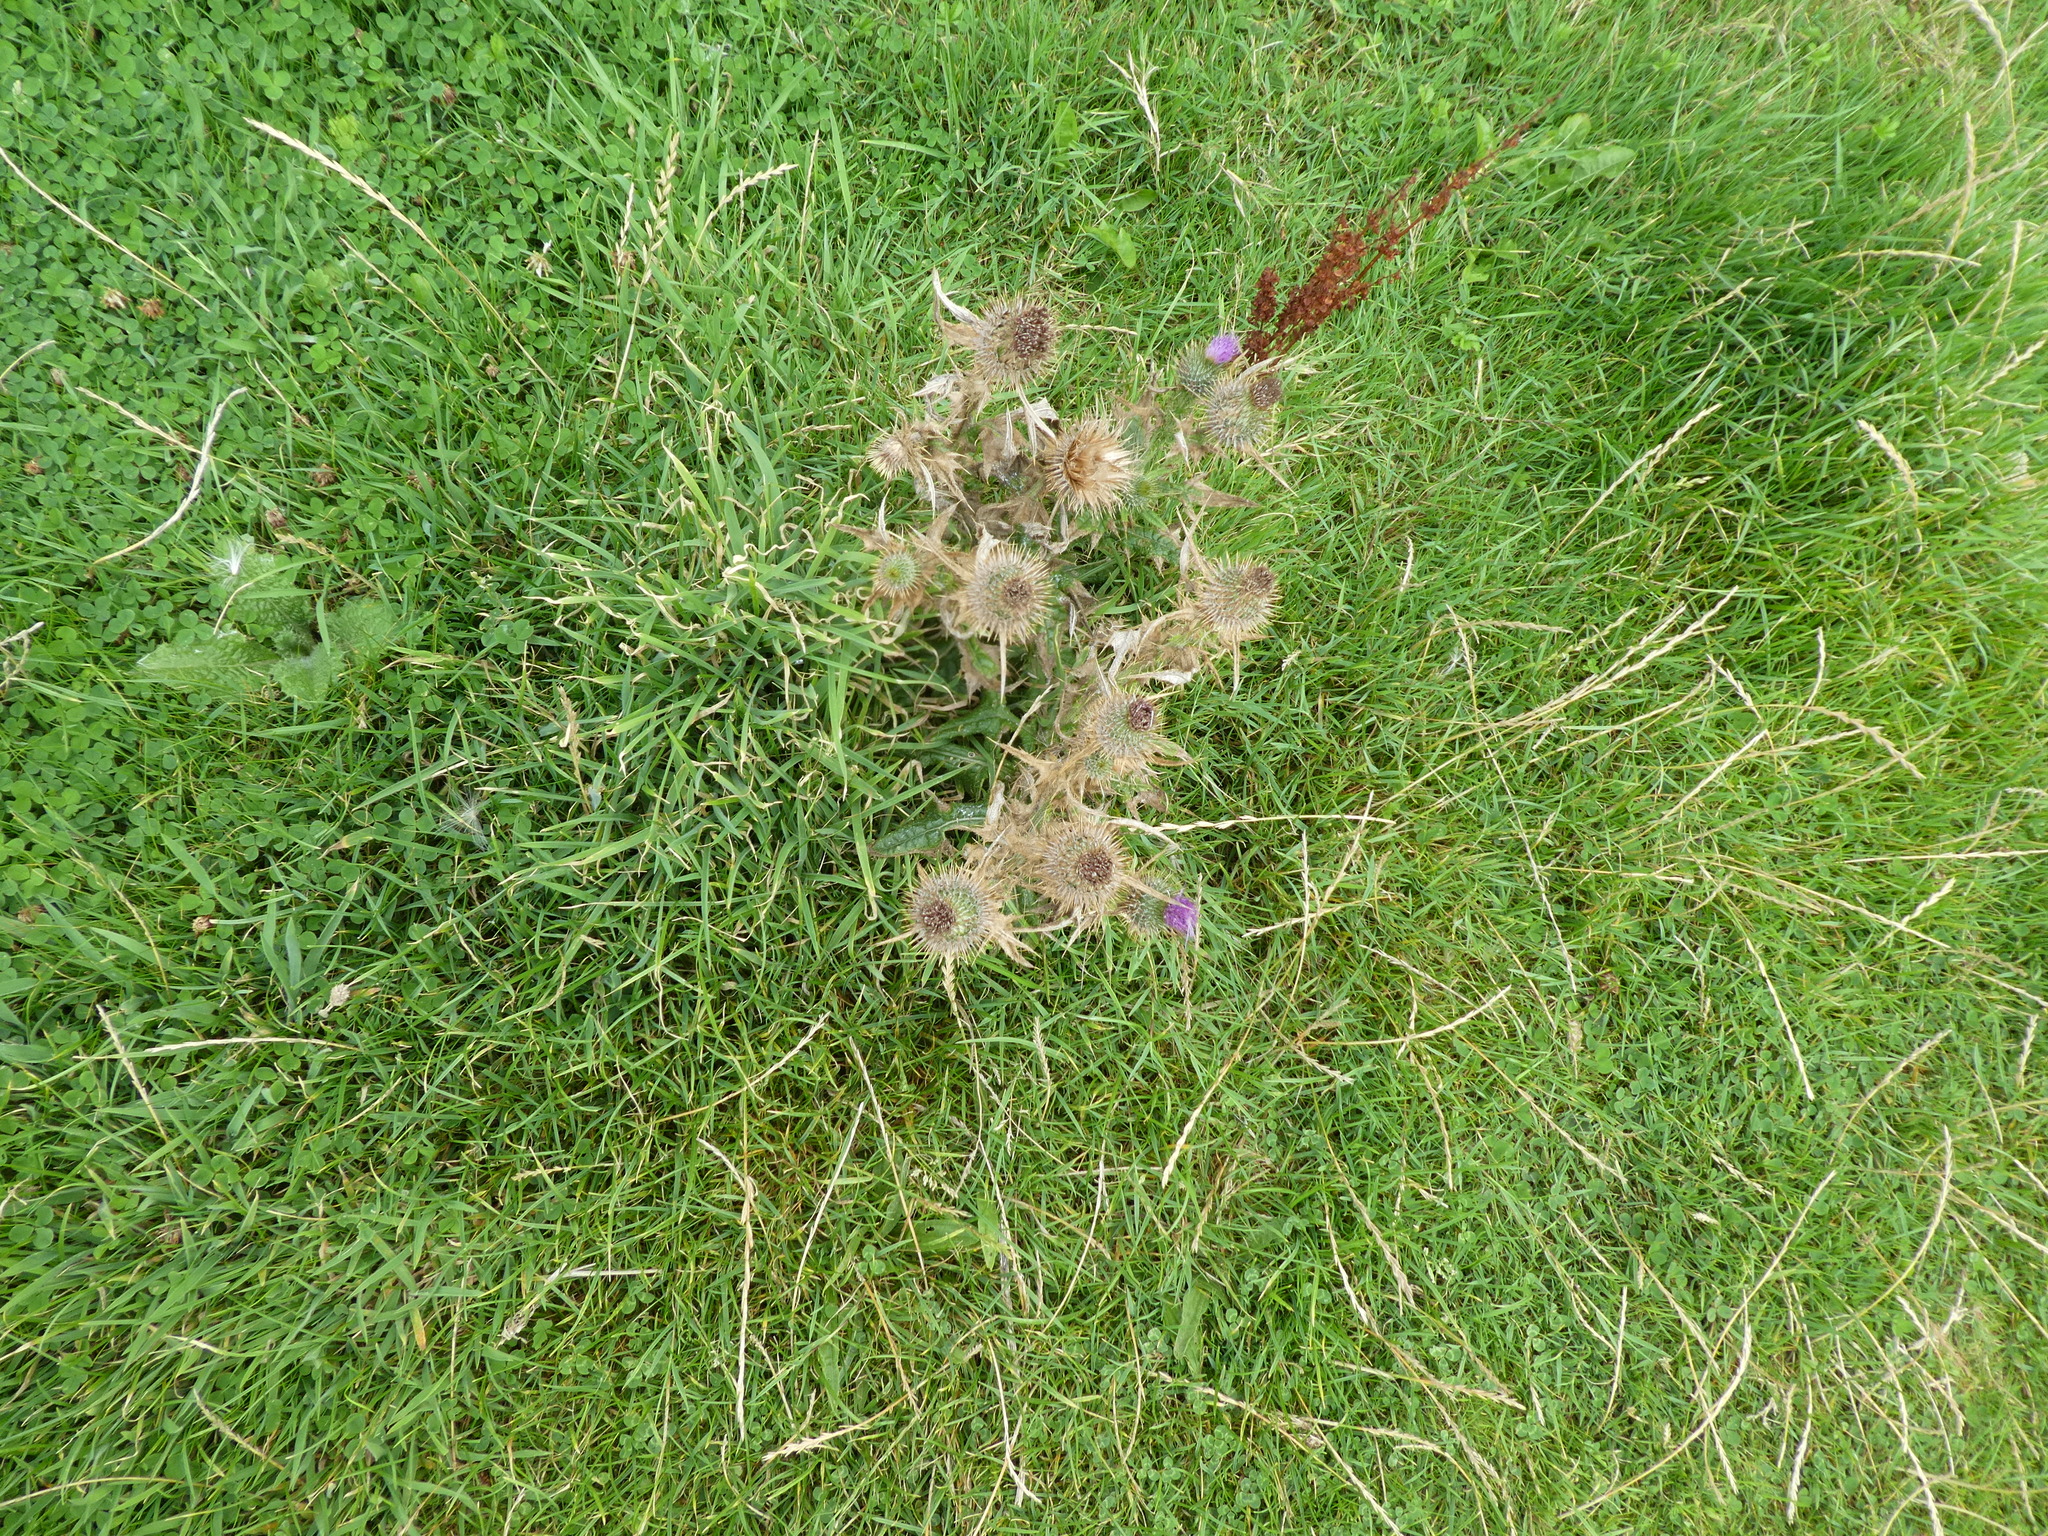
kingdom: Plantae
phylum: Tracheophyta
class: Magnoliopsida
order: Asterales
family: Asteraceae
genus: Cirsium
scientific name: Cirsium vulgare
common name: Bull thistle
